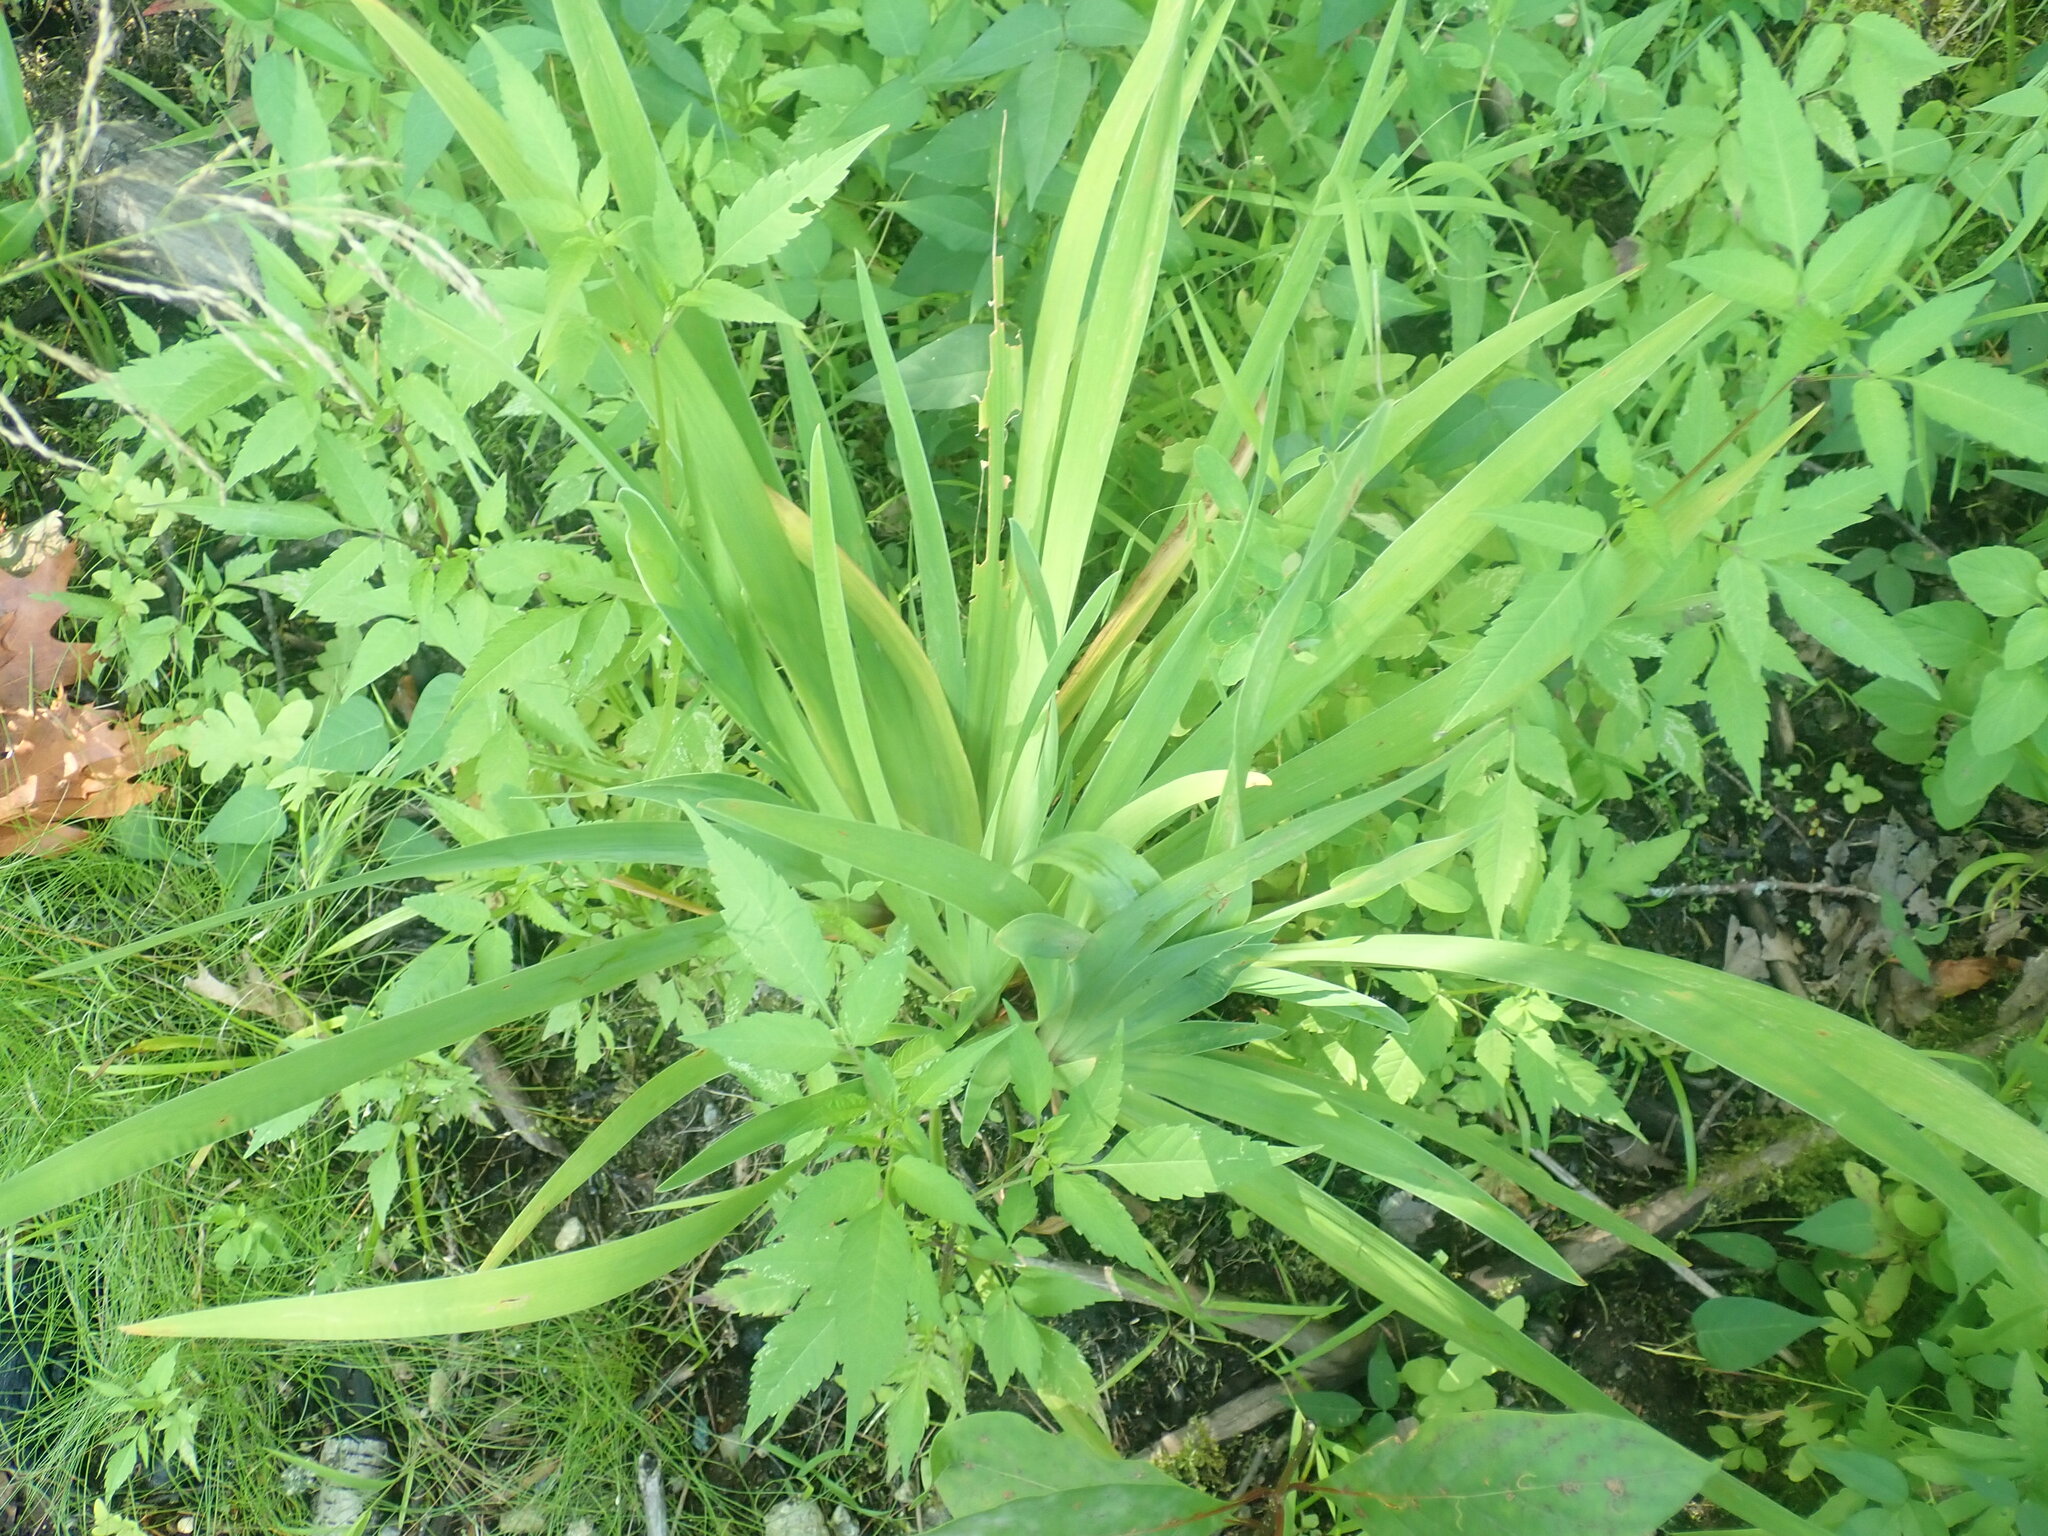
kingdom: Plantae
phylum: Tracheophyta
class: Liliopsida
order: Asparagales
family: Iridaceae
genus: Iris
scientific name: Iris
